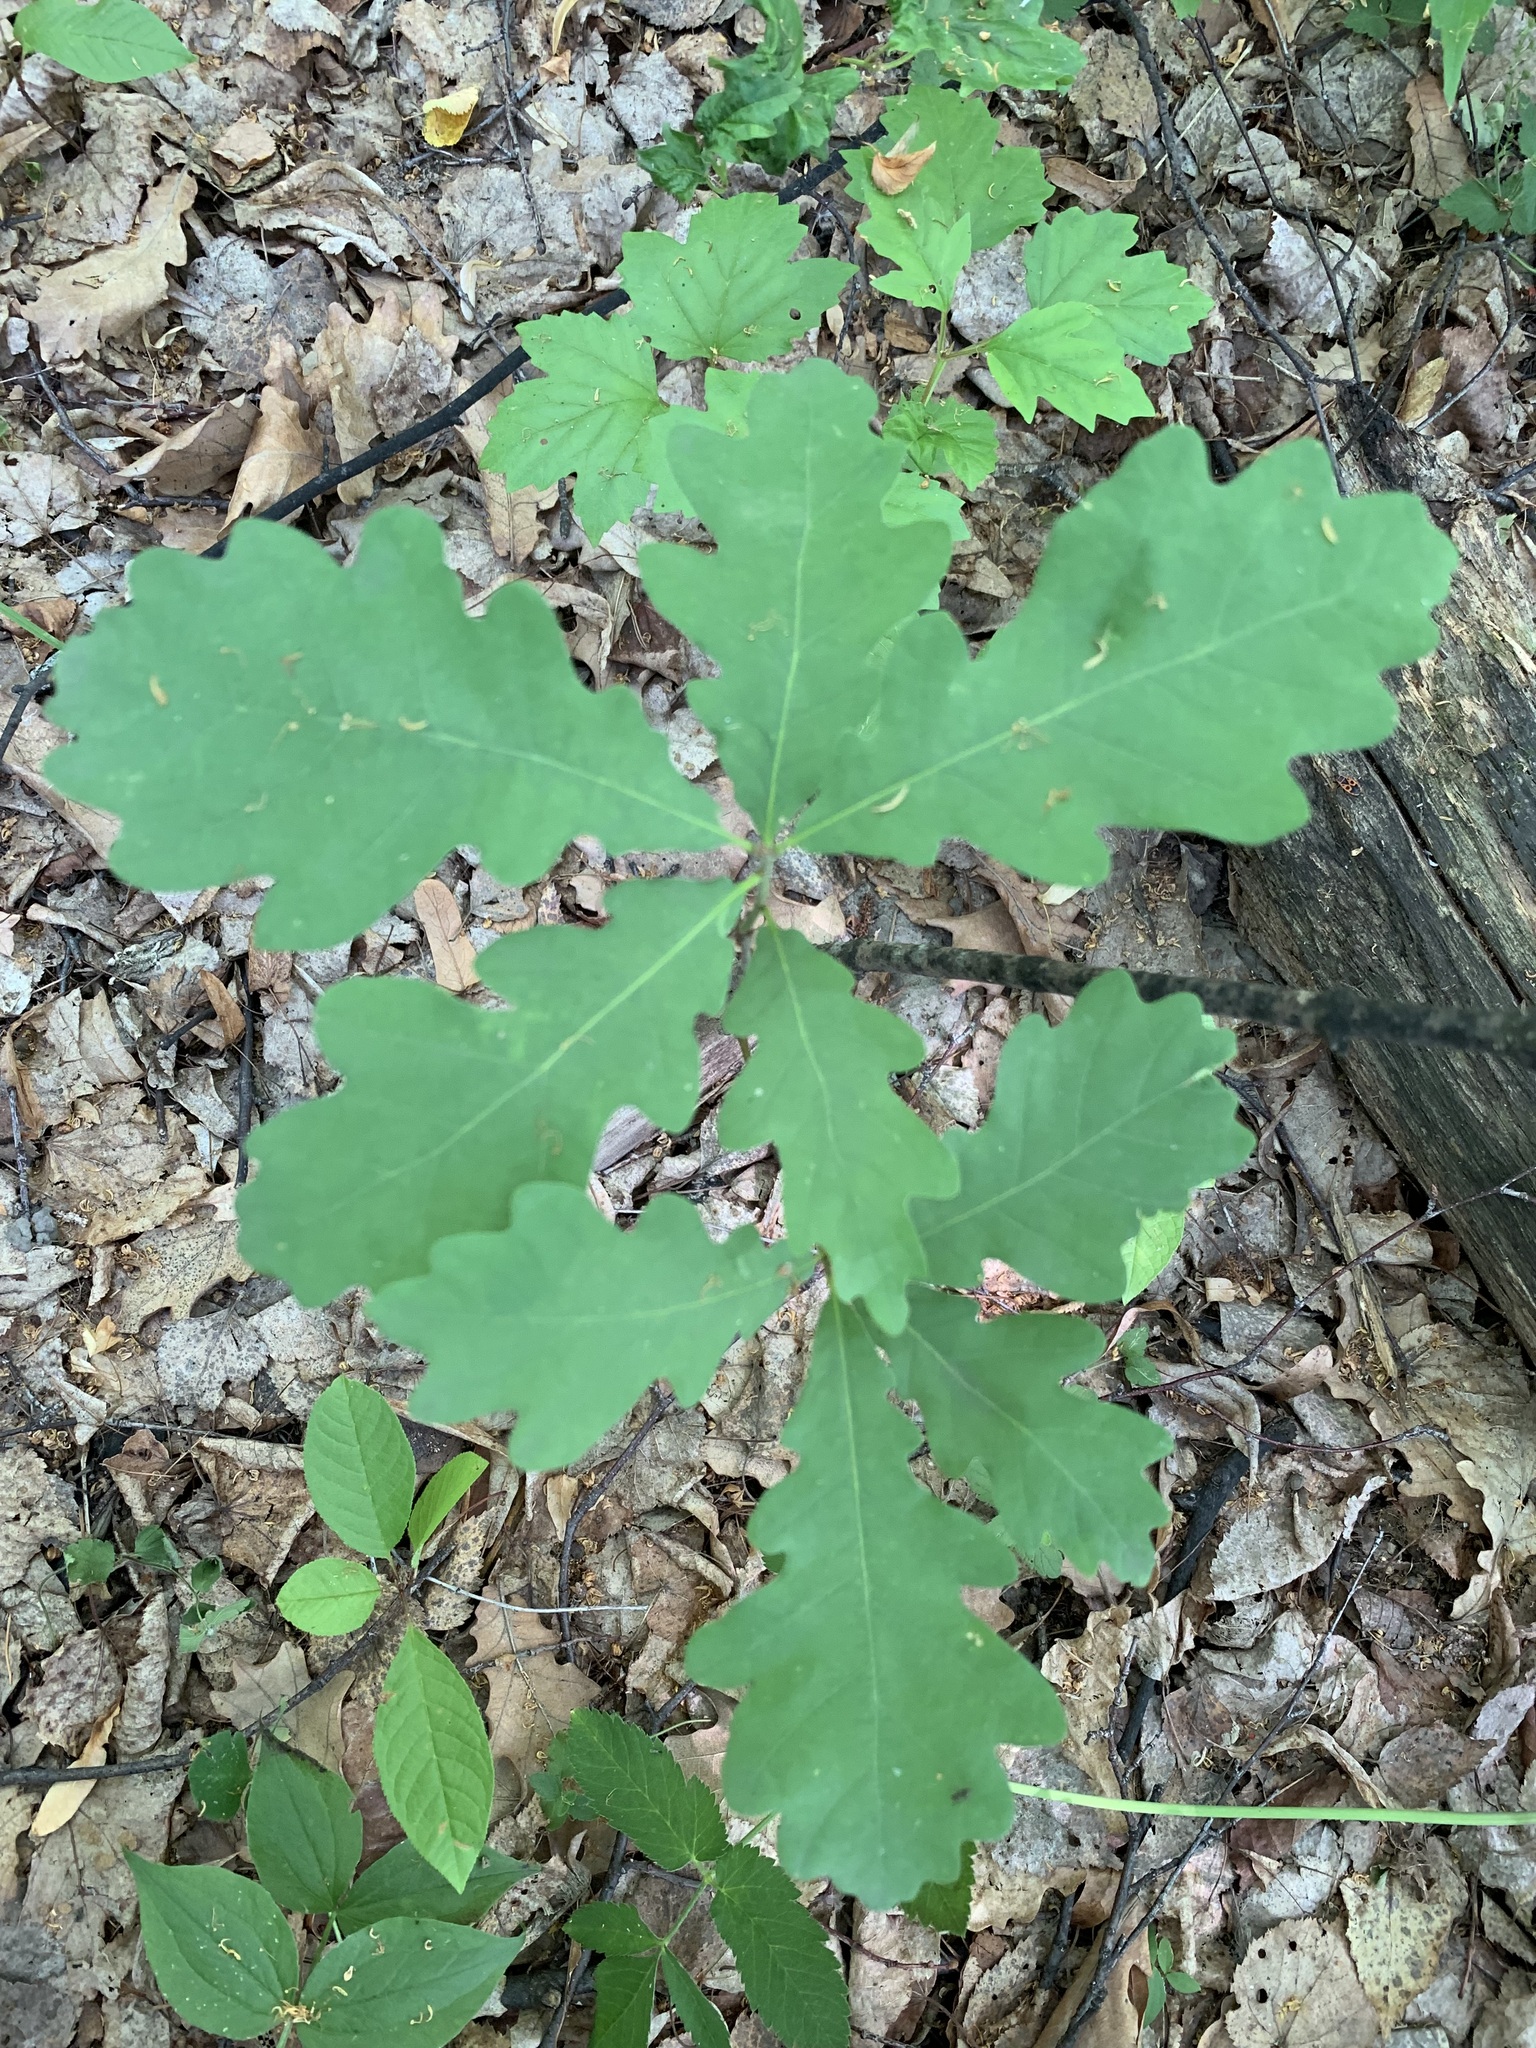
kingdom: Plantae
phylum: Tracheophyta
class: Magnoliopsida
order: Fagales
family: Fagaceae
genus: Quercus
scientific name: Quercus robur
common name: Pedunculate oak
